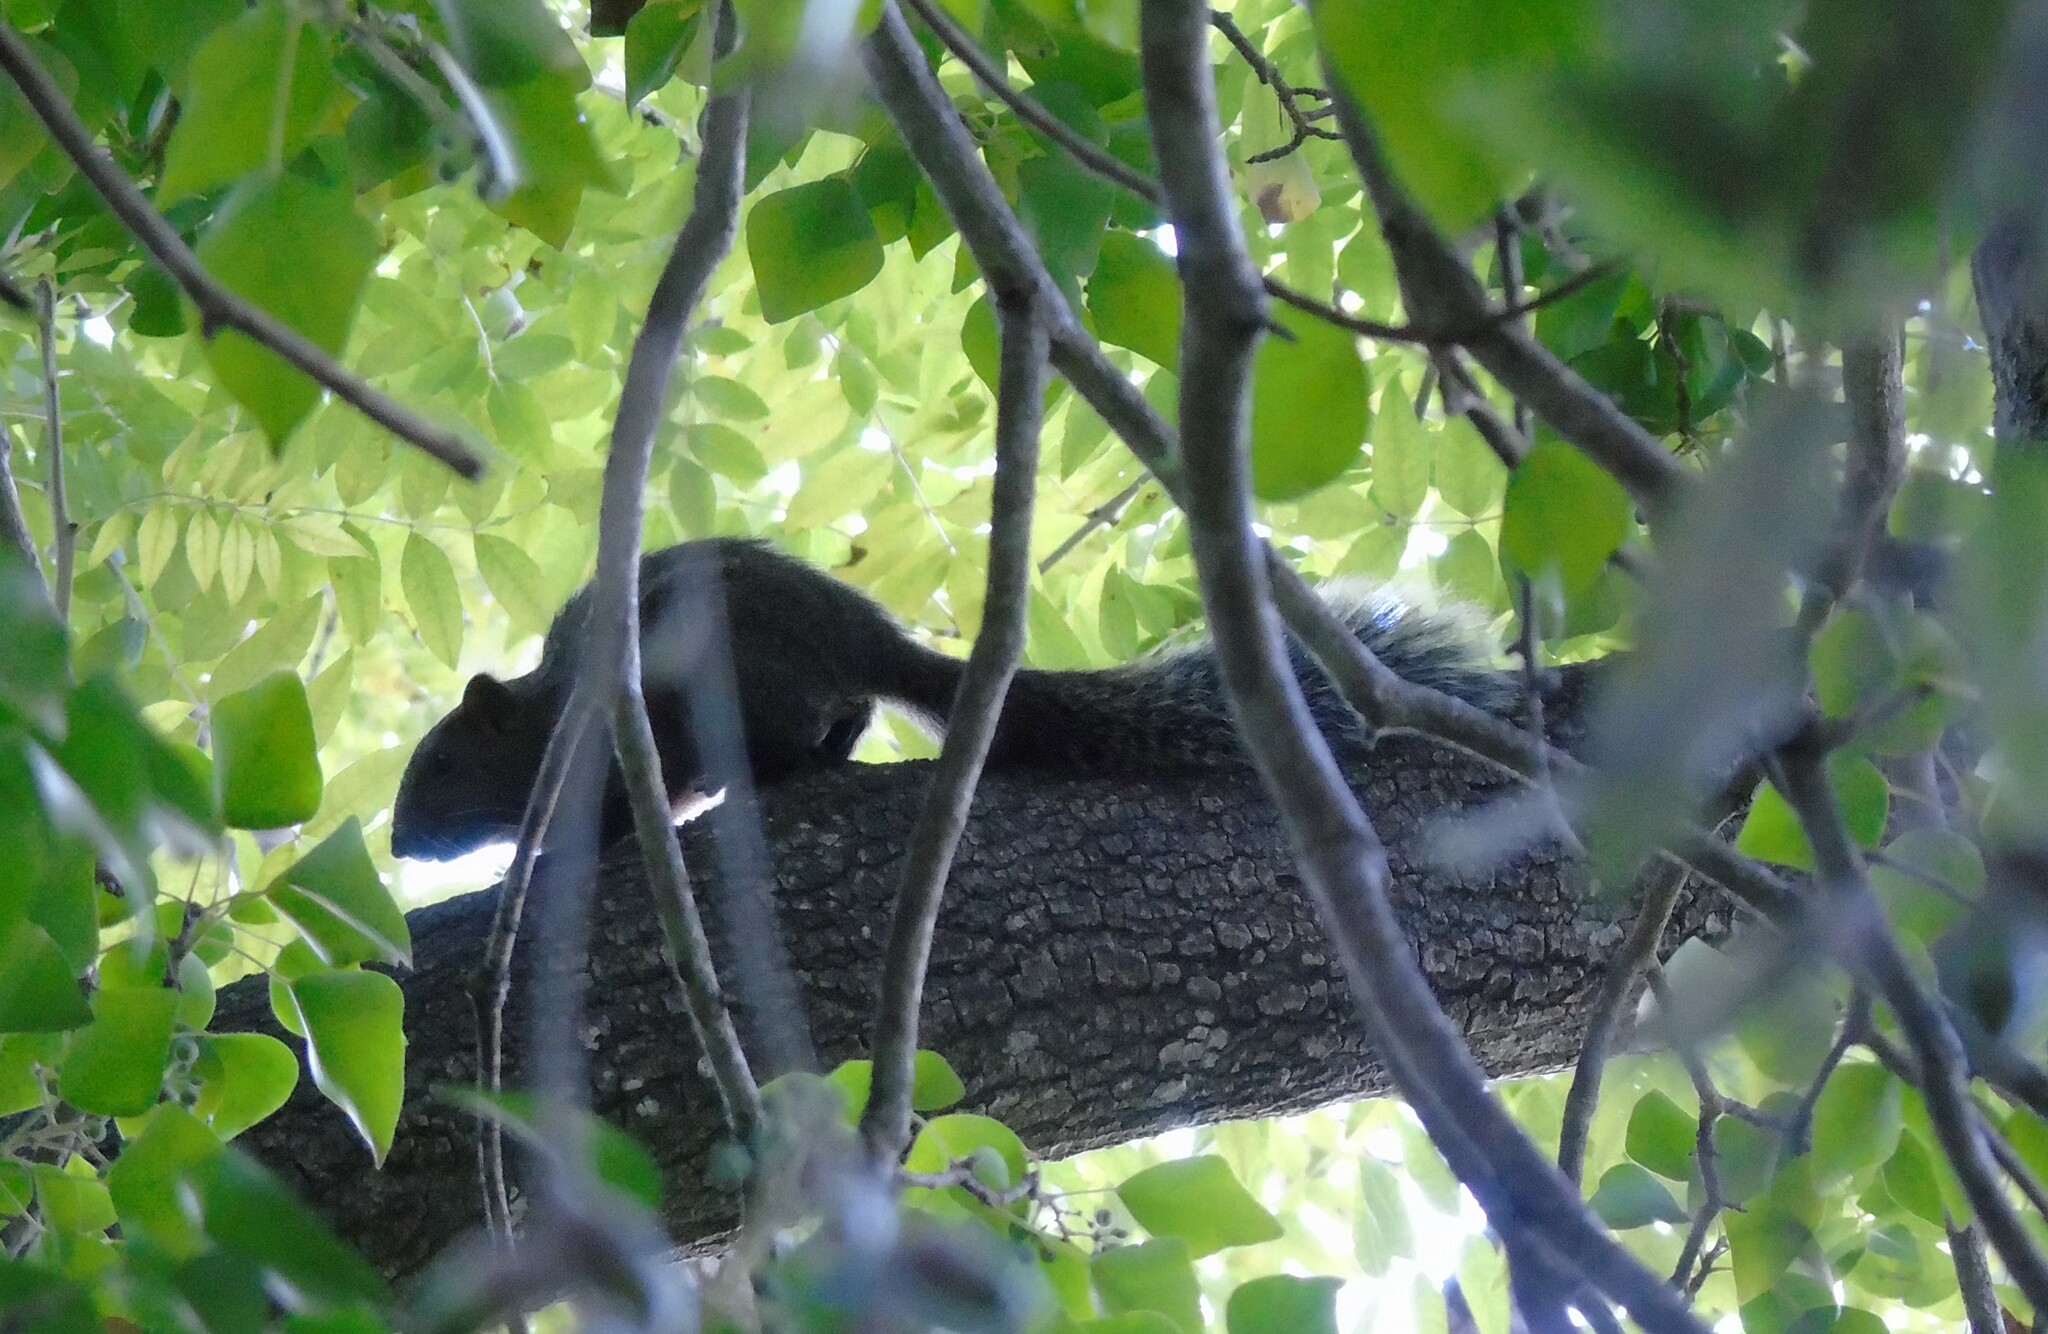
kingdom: Animalia
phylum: Chordata
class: Mammalia
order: Rodentia
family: Sciuridae
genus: Callosciurus
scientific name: Callosciurus erythraeus
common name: Pallas's squirrel
